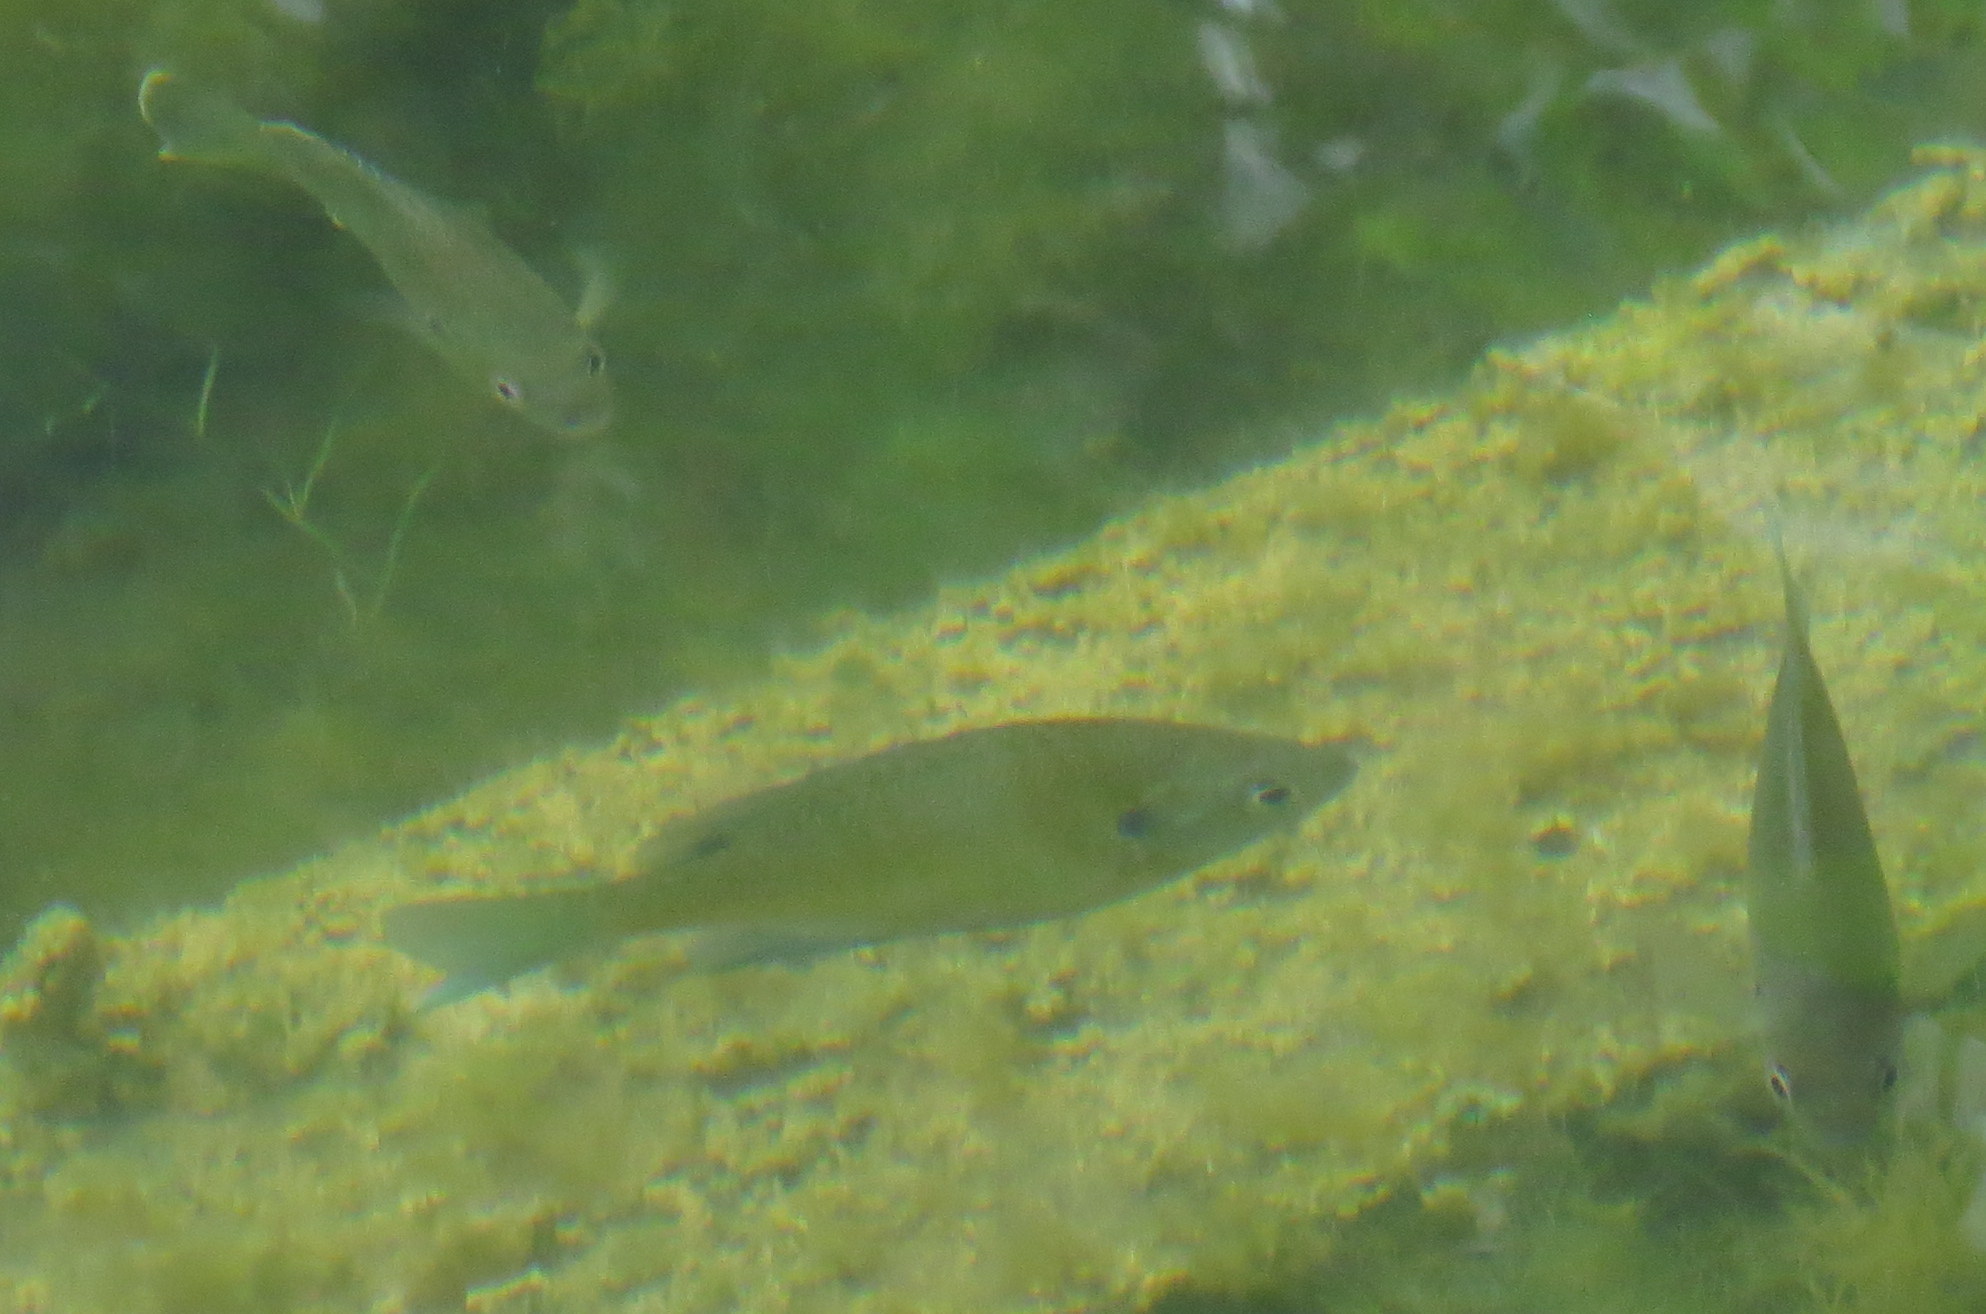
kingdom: Animalia
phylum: Chordata
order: Perciformes
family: Centrarchidae
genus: Lepomis
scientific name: Lepomis macrochirus
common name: Bluegill
